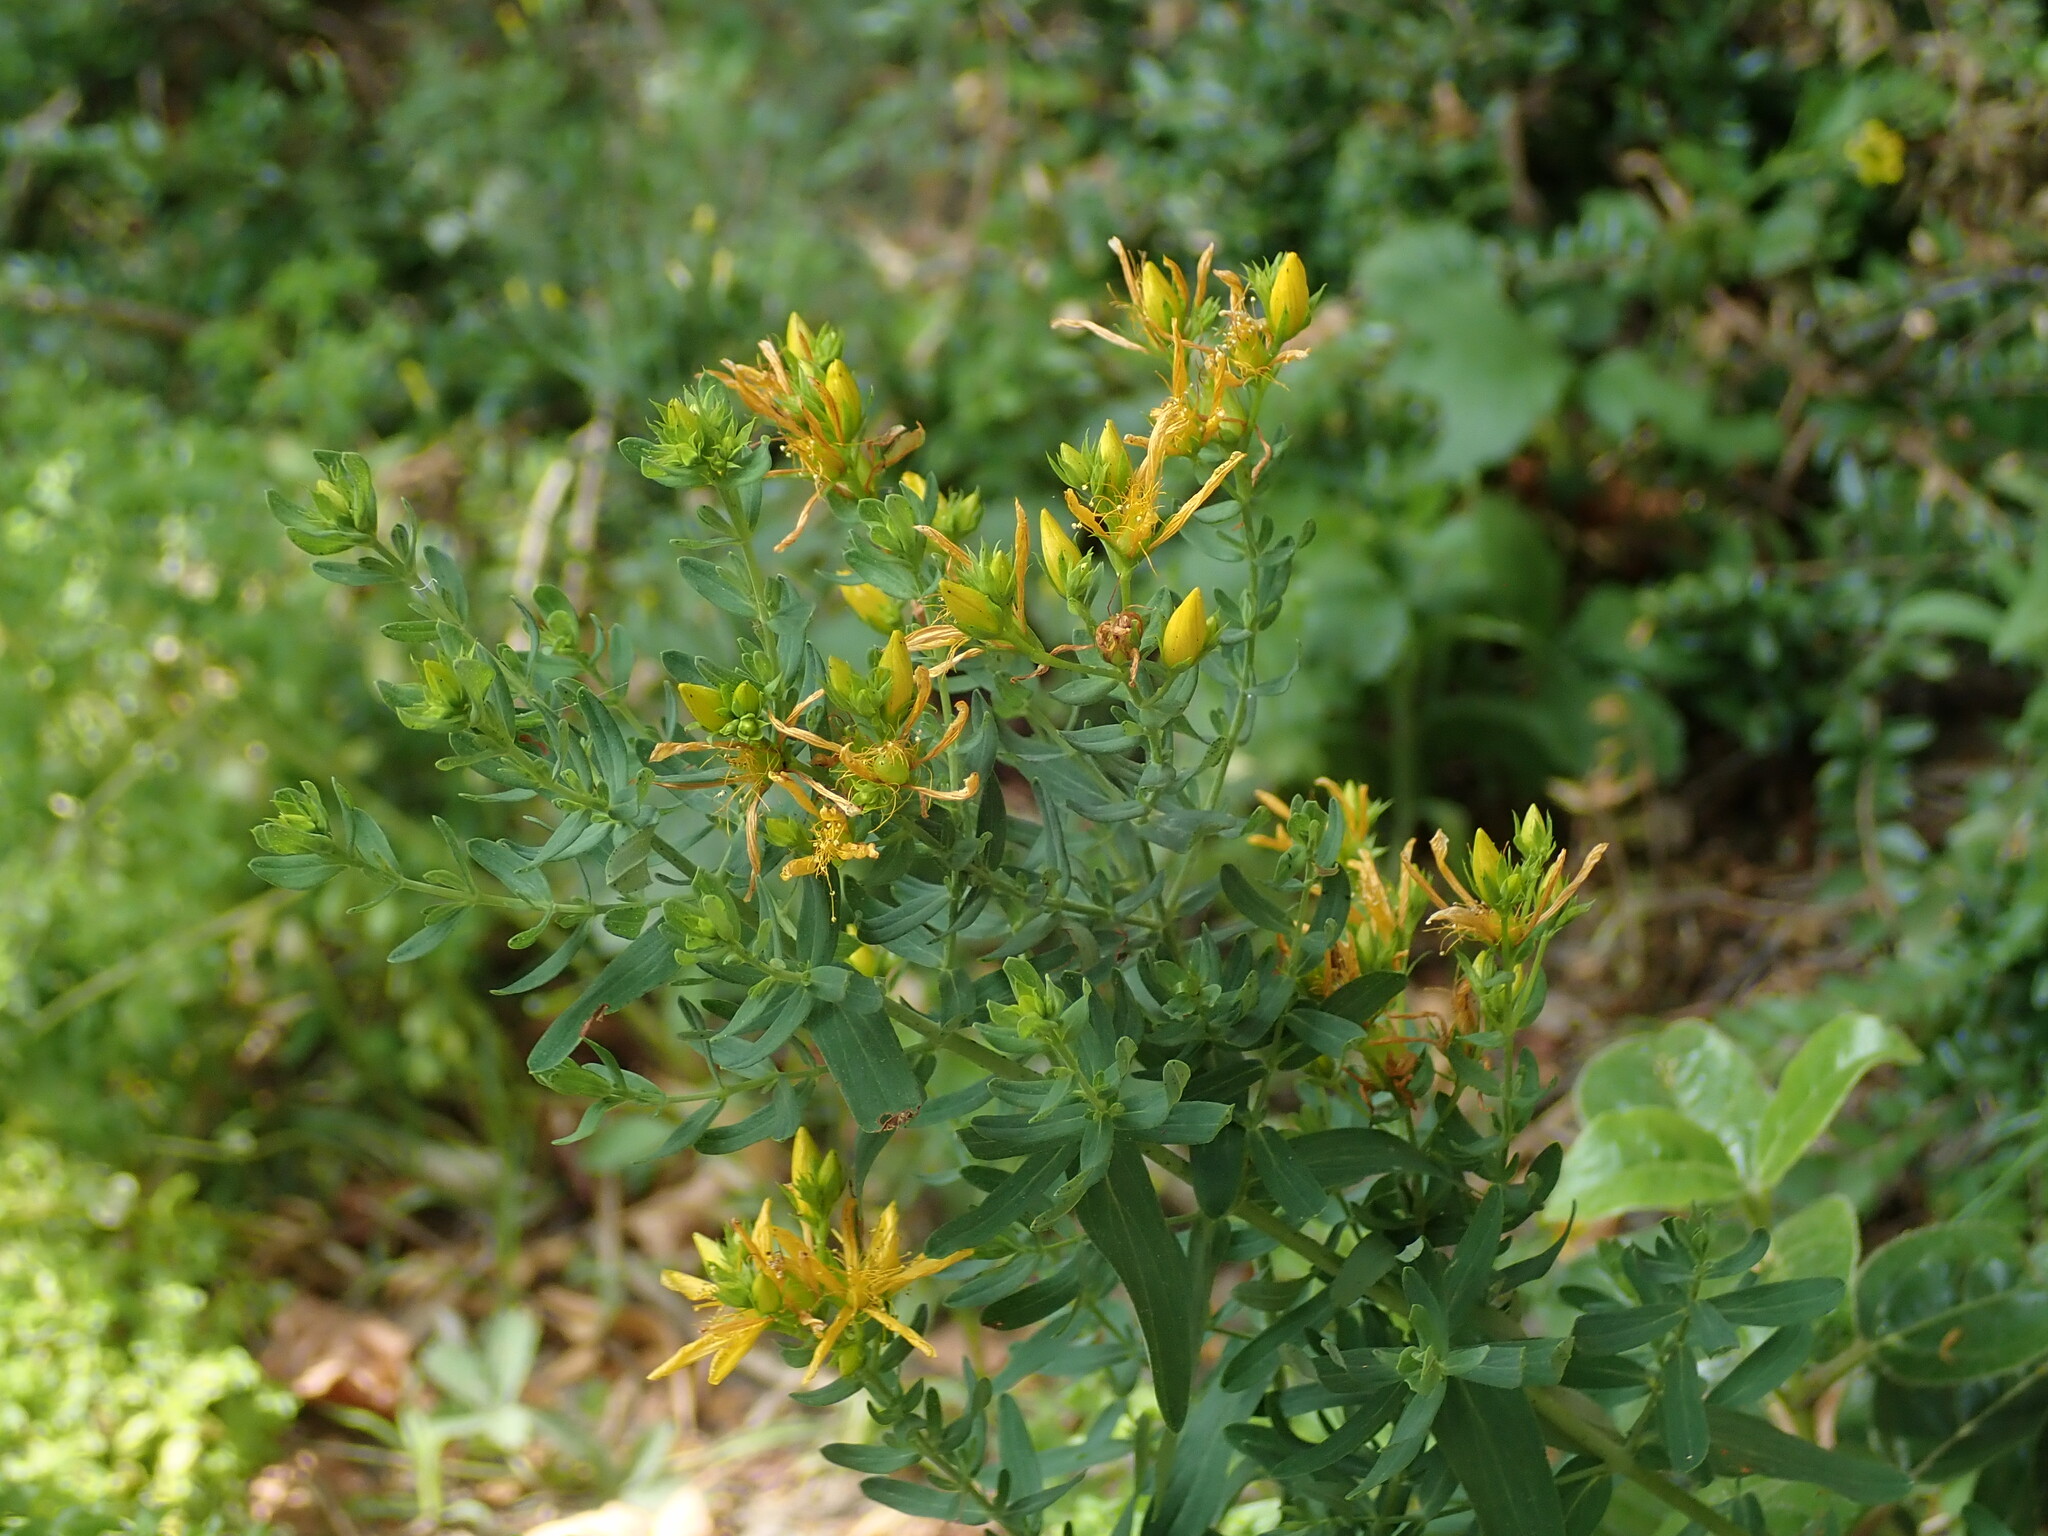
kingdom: Plantae
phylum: Tracheophyta
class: Magnoliopsida
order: Malpighiales
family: Hypericaceae
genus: Hypericum
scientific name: Hypericum perforatum
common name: Common st. johnswort
